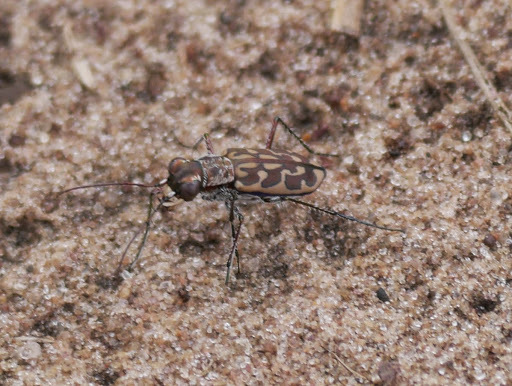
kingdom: Animalia
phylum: Arthropoda
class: Insecta
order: Coleoptera
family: Carabidae
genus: Lophyra
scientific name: Lophyra neglecta
